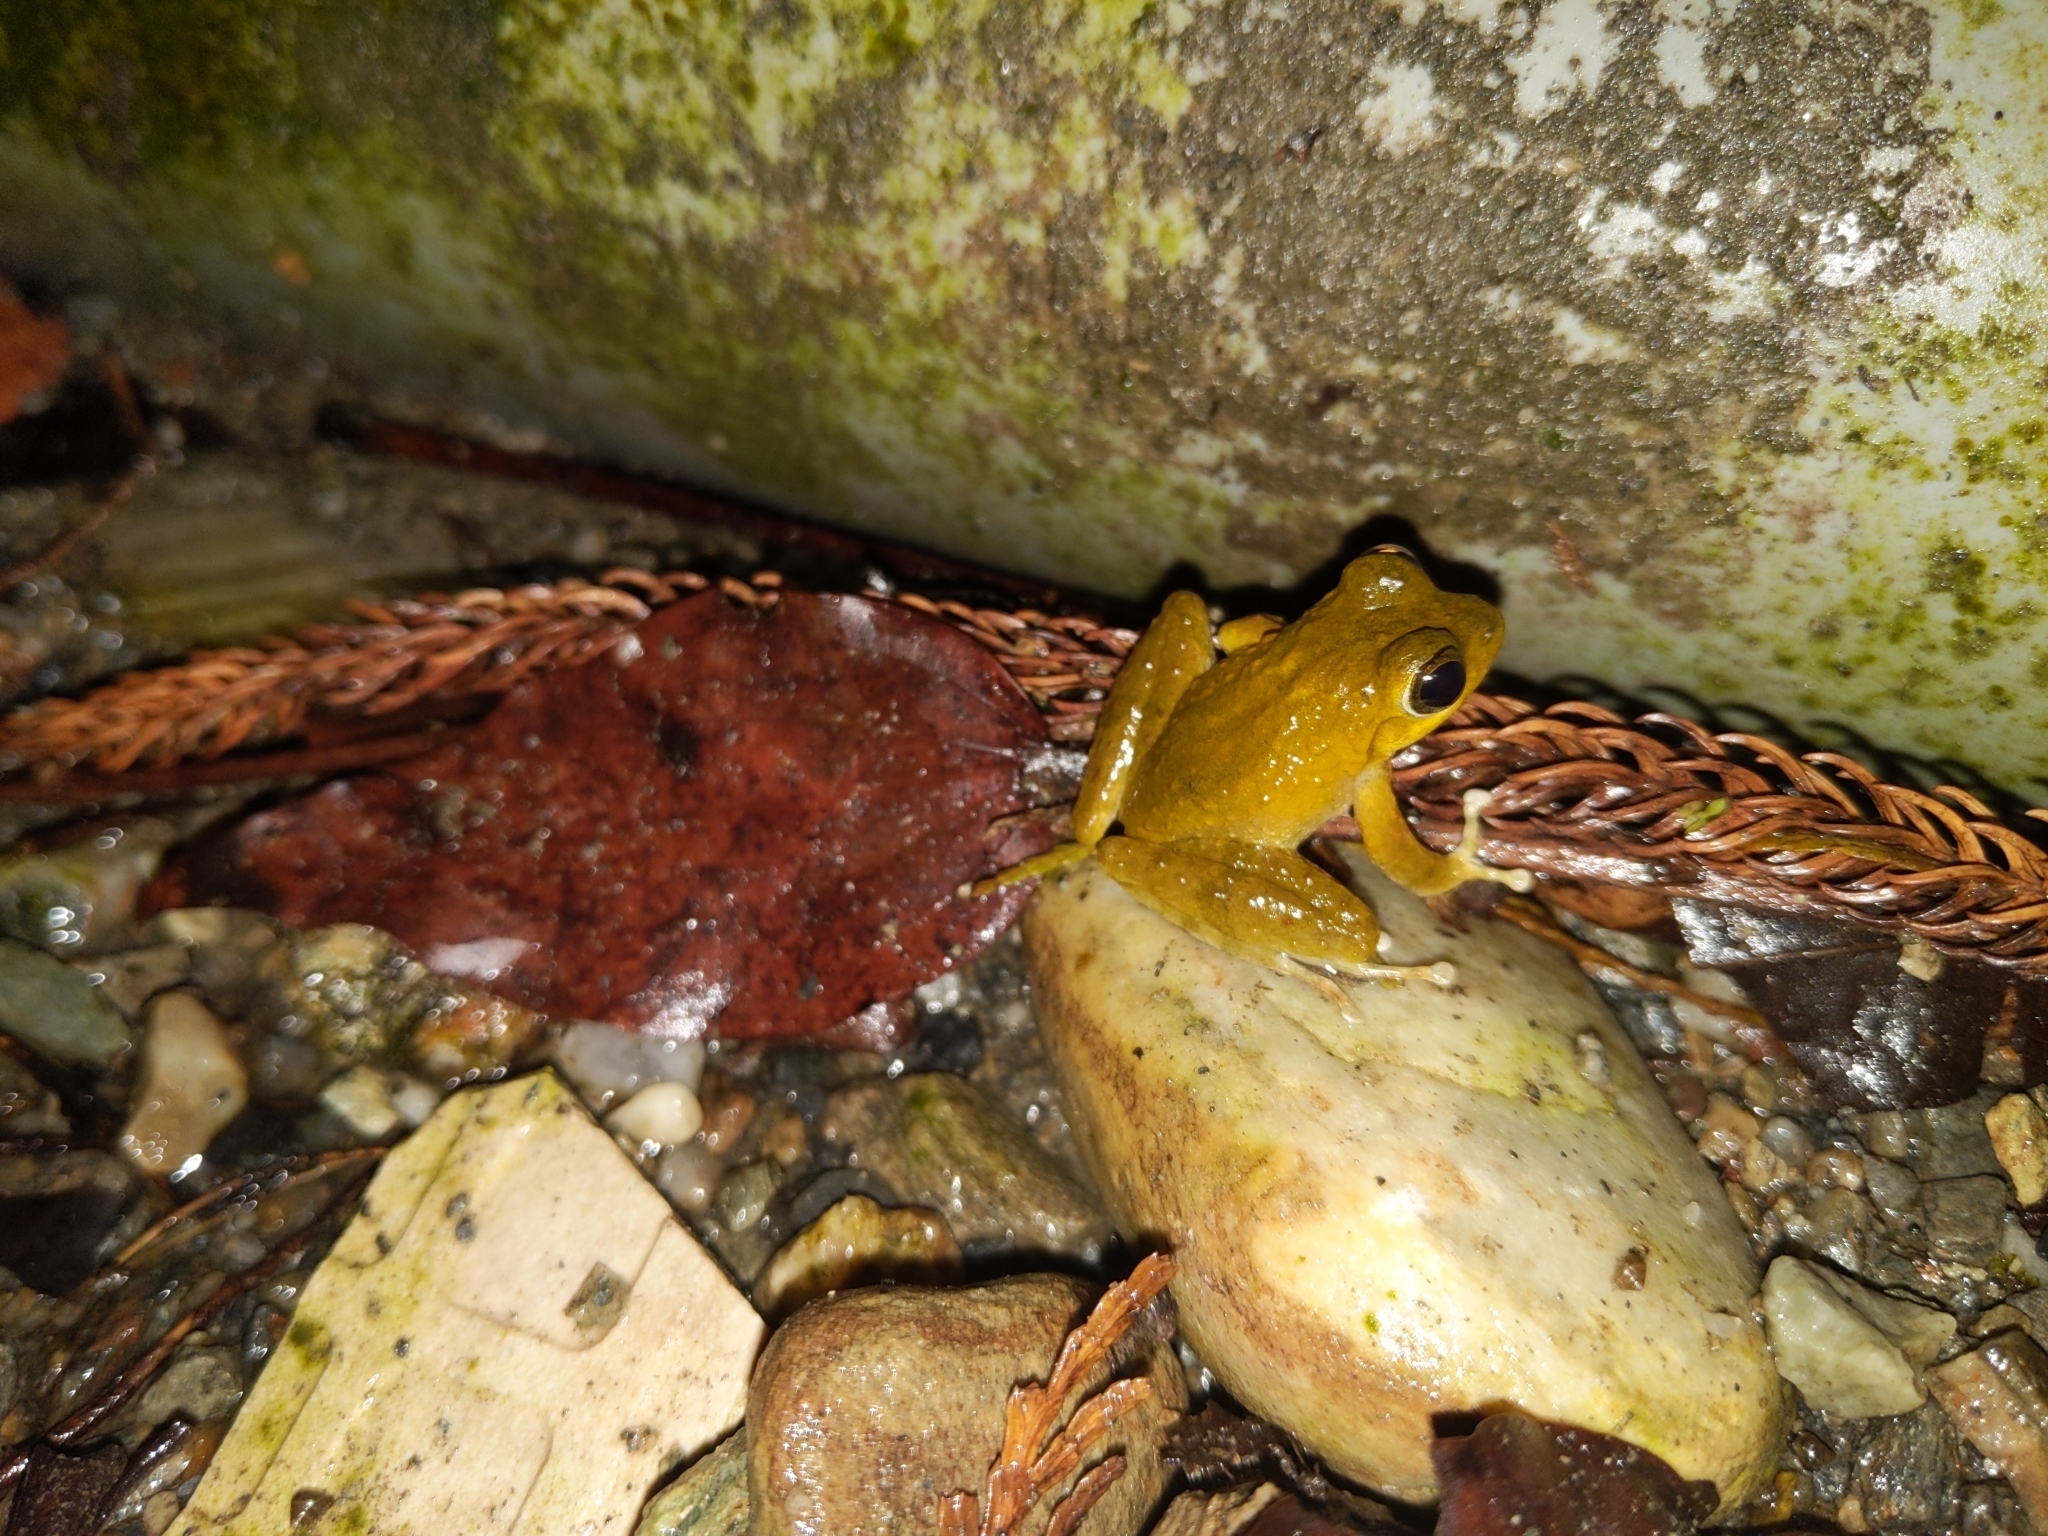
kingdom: Animalia
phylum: Chordata
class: Amphibia
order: Anura
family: Rhacophoridae
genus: Buergeria
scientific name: Buergeria otai
